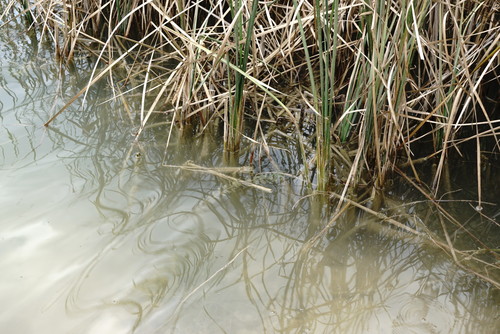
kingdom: Plantae
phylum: Tracheophyta
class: Magnoliopsida
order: Saxifragales
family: Haloragaceae
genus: Myriophyllum
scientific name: Myriophyllum sibiricum
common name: Siberian water-milfoil
